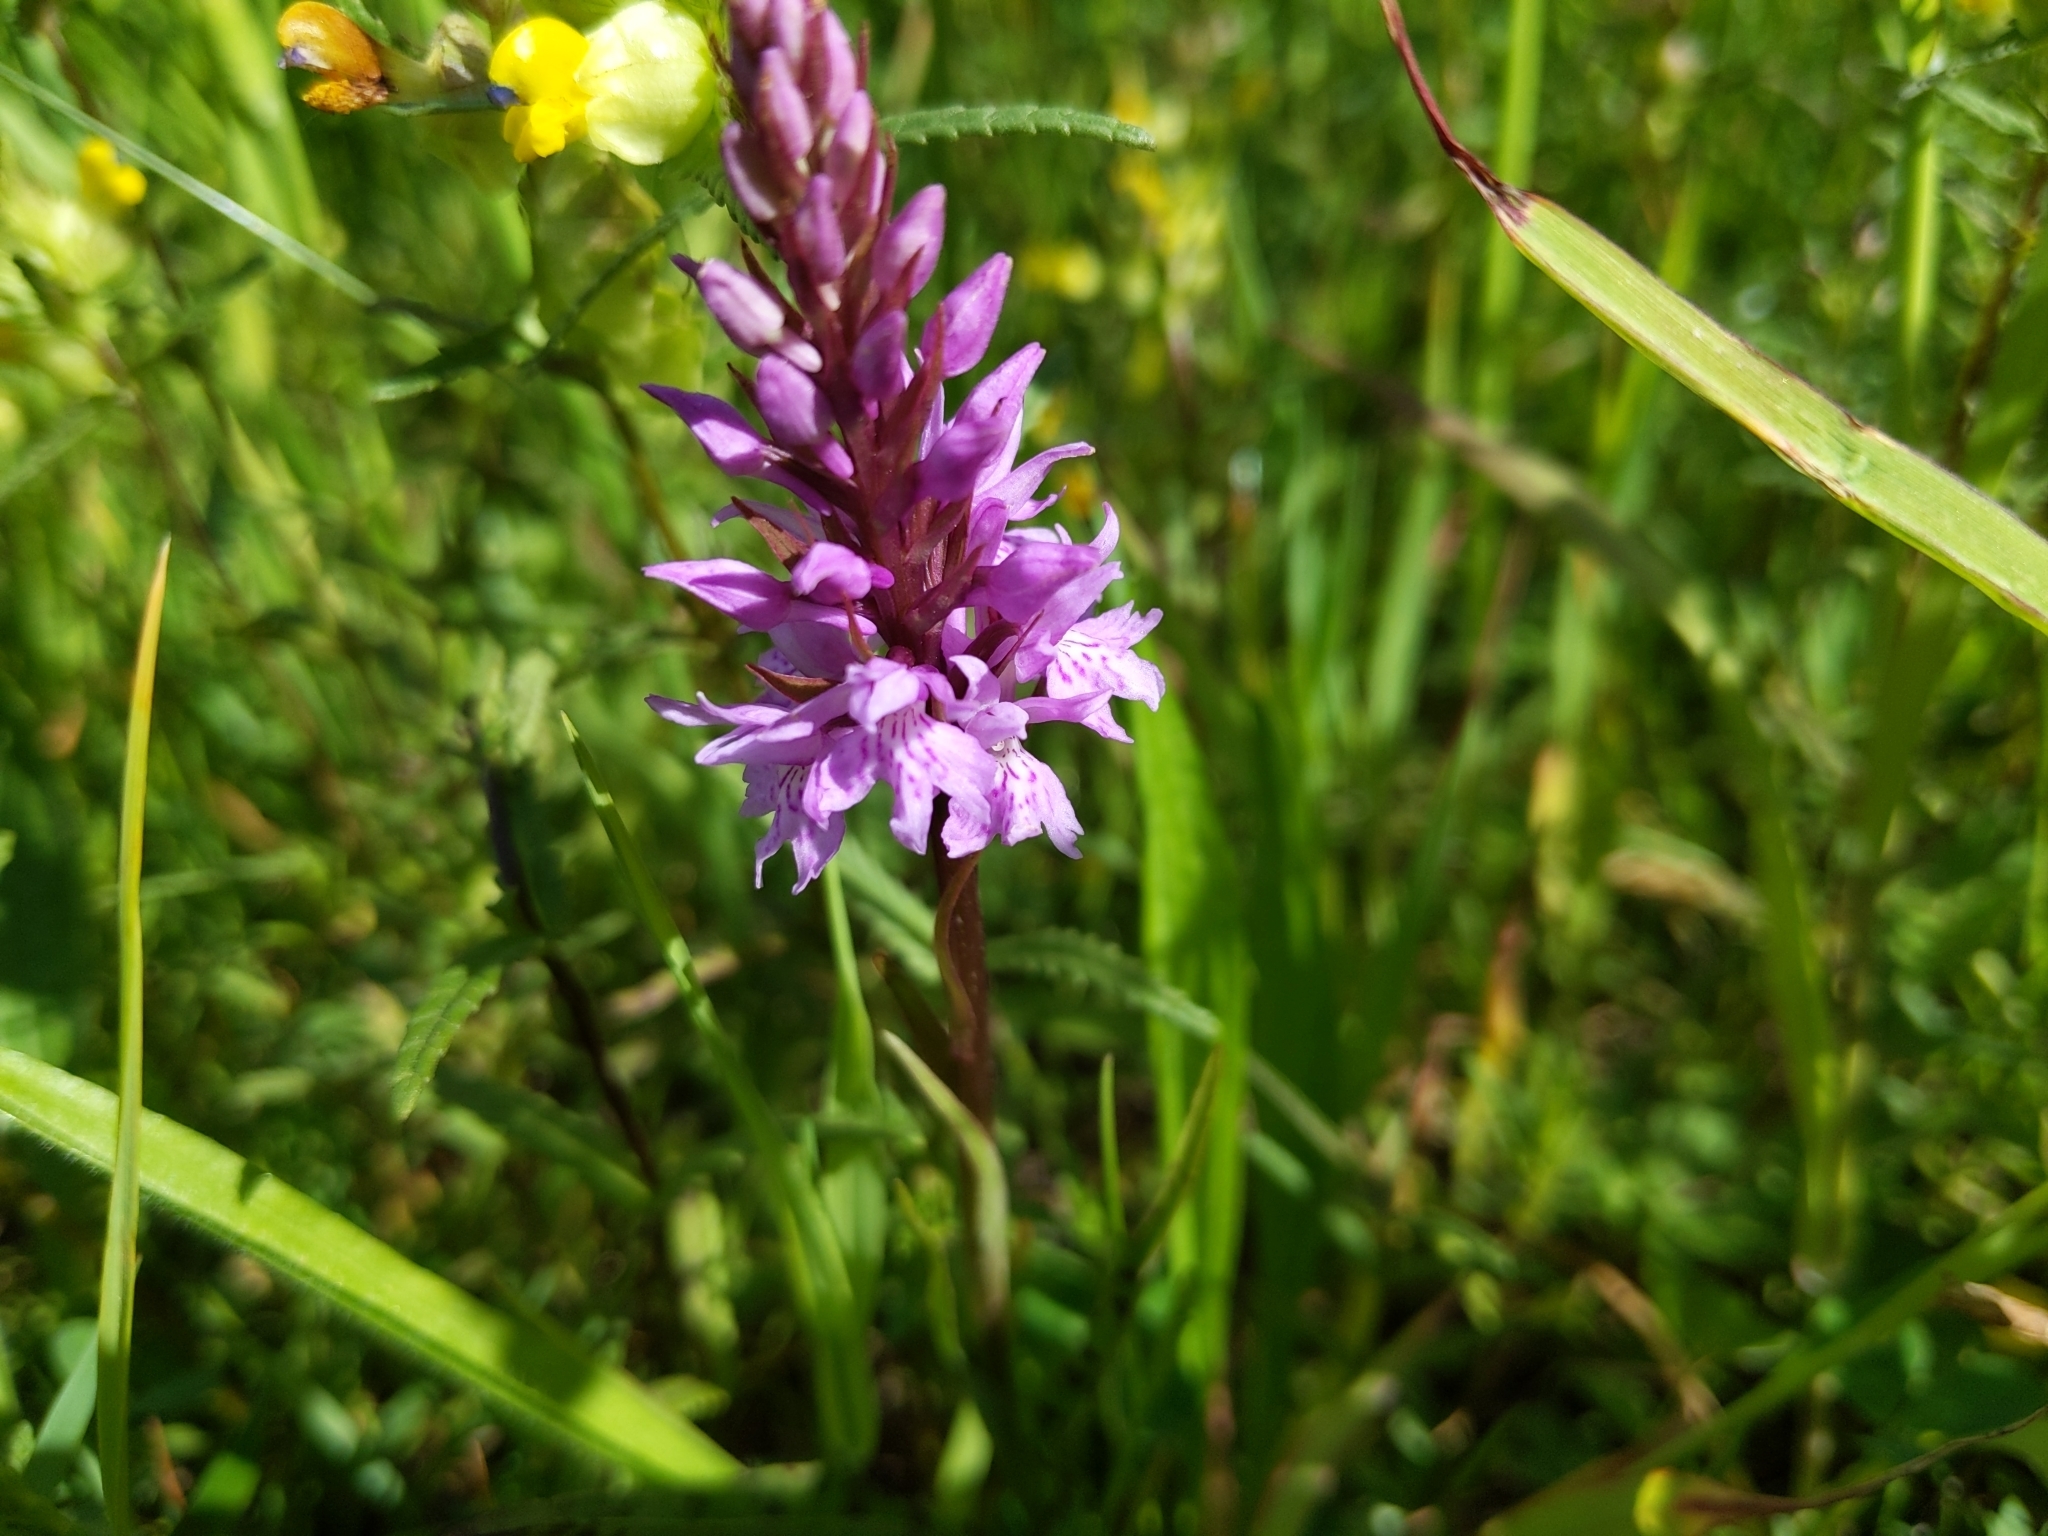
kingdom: Plantae
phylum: Tracheophyta
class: Liliopsida
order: Asparagales
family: Orchidaceae
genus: Dactylorhiza
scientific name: Dactylorhiza maculata
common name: Heath spotted-orchid
